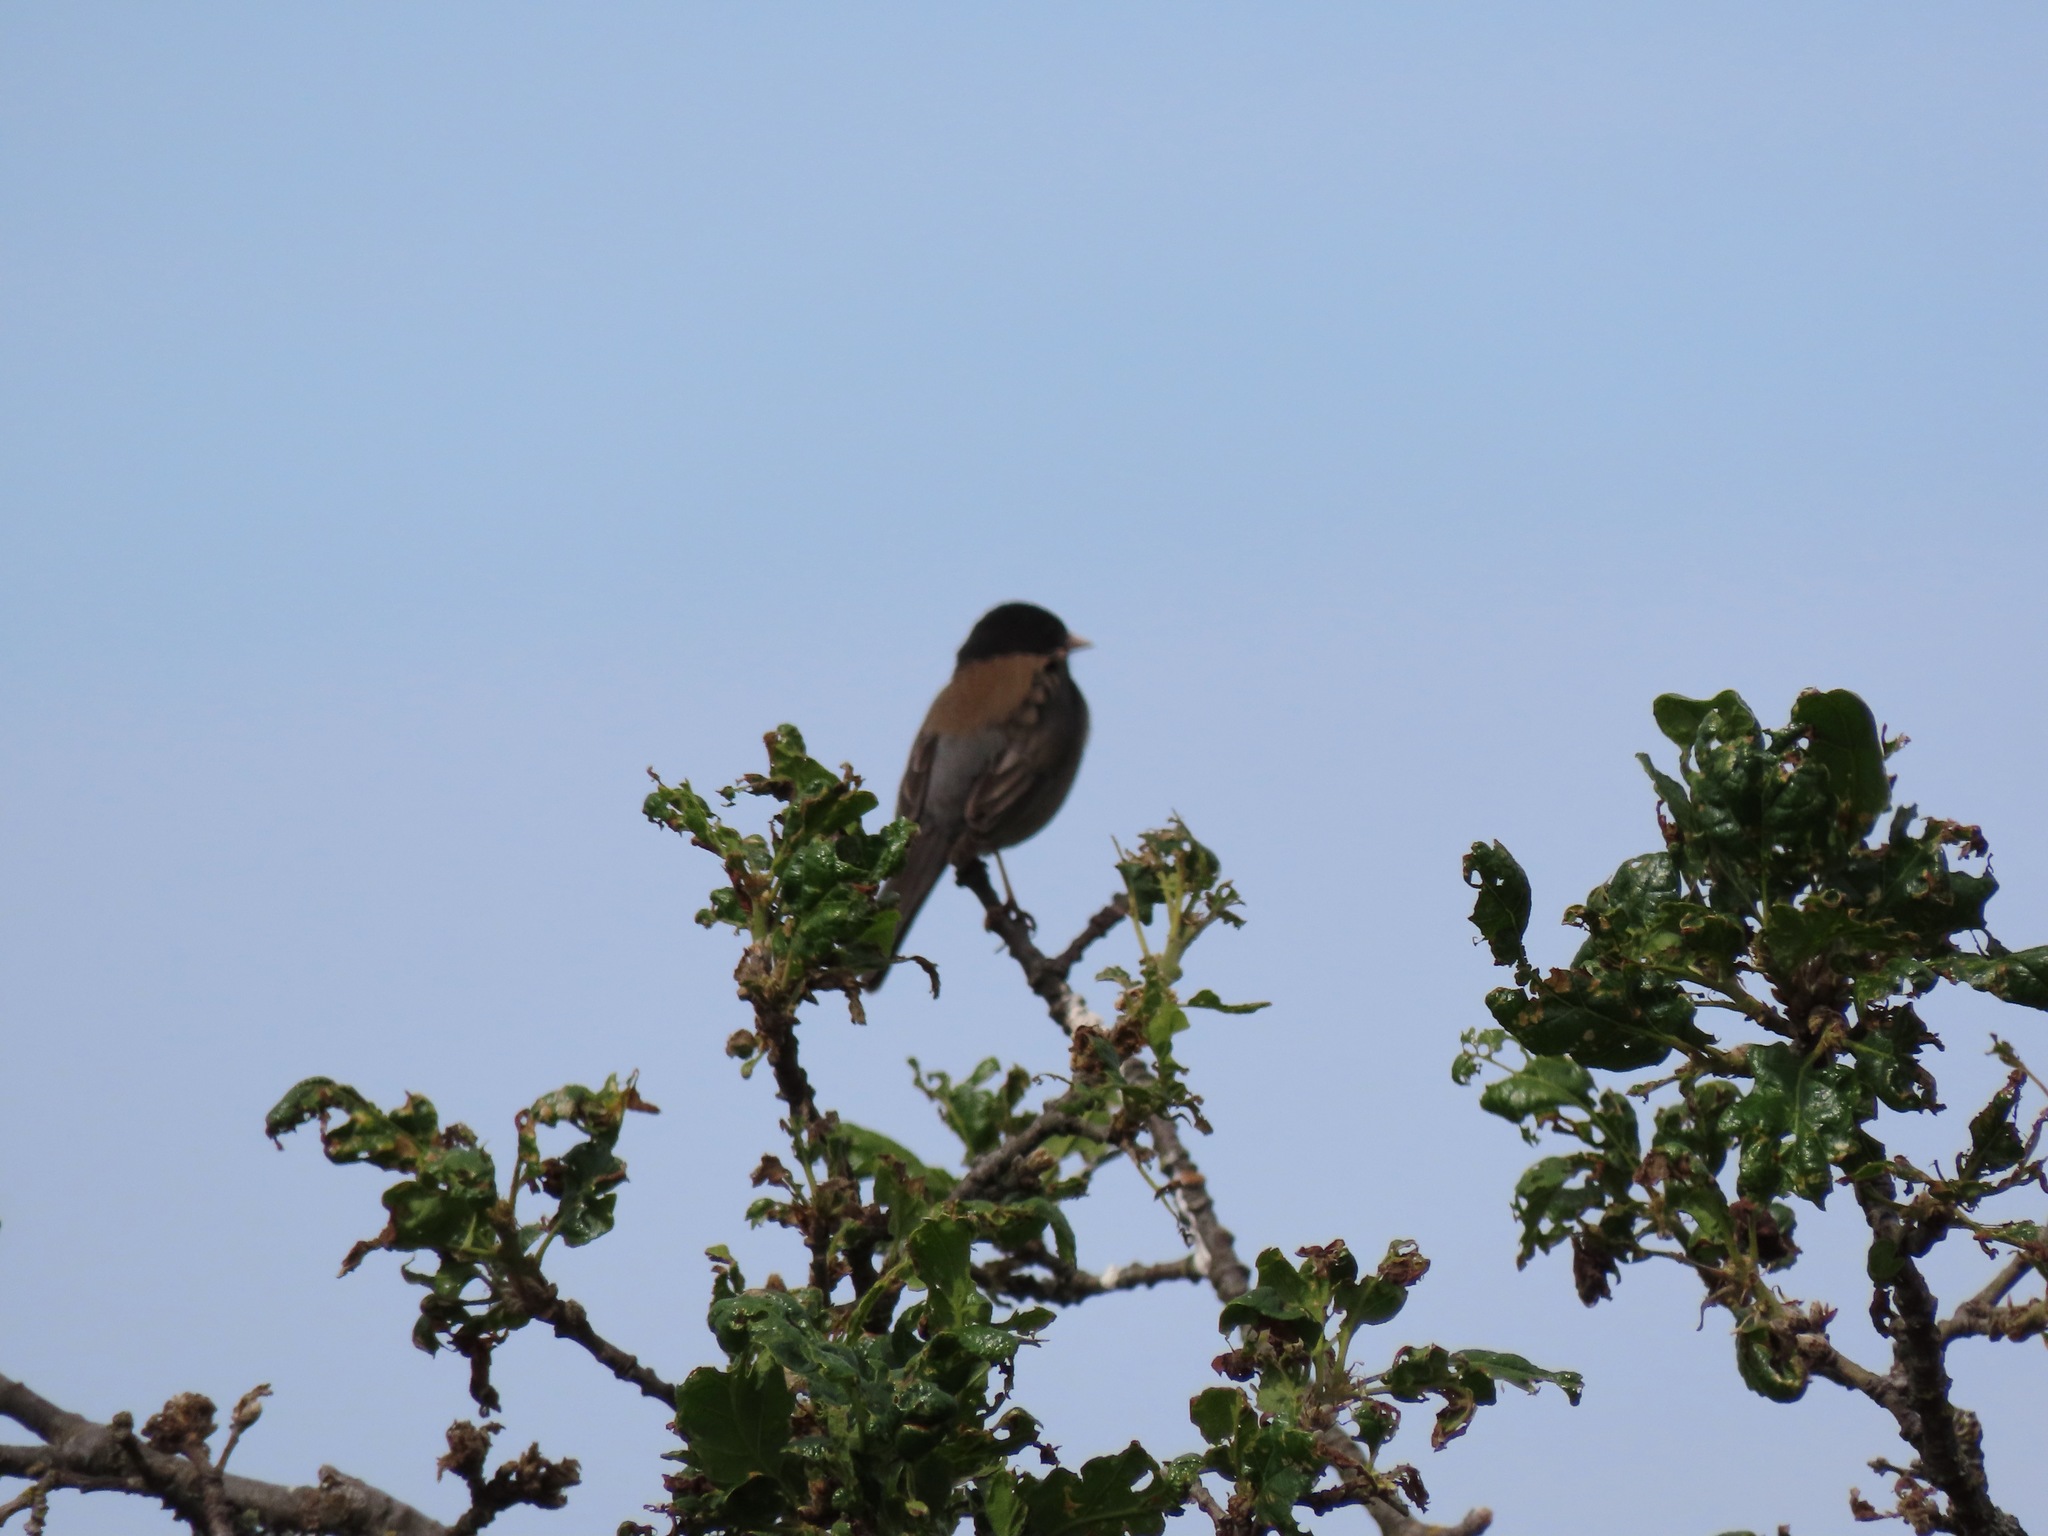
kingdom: Animalia
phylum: Chordata
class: Aves
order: Passeriformes
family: Passerellidae
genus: Junco
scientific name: Junco hyemalis
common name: Dark-eyed junco
